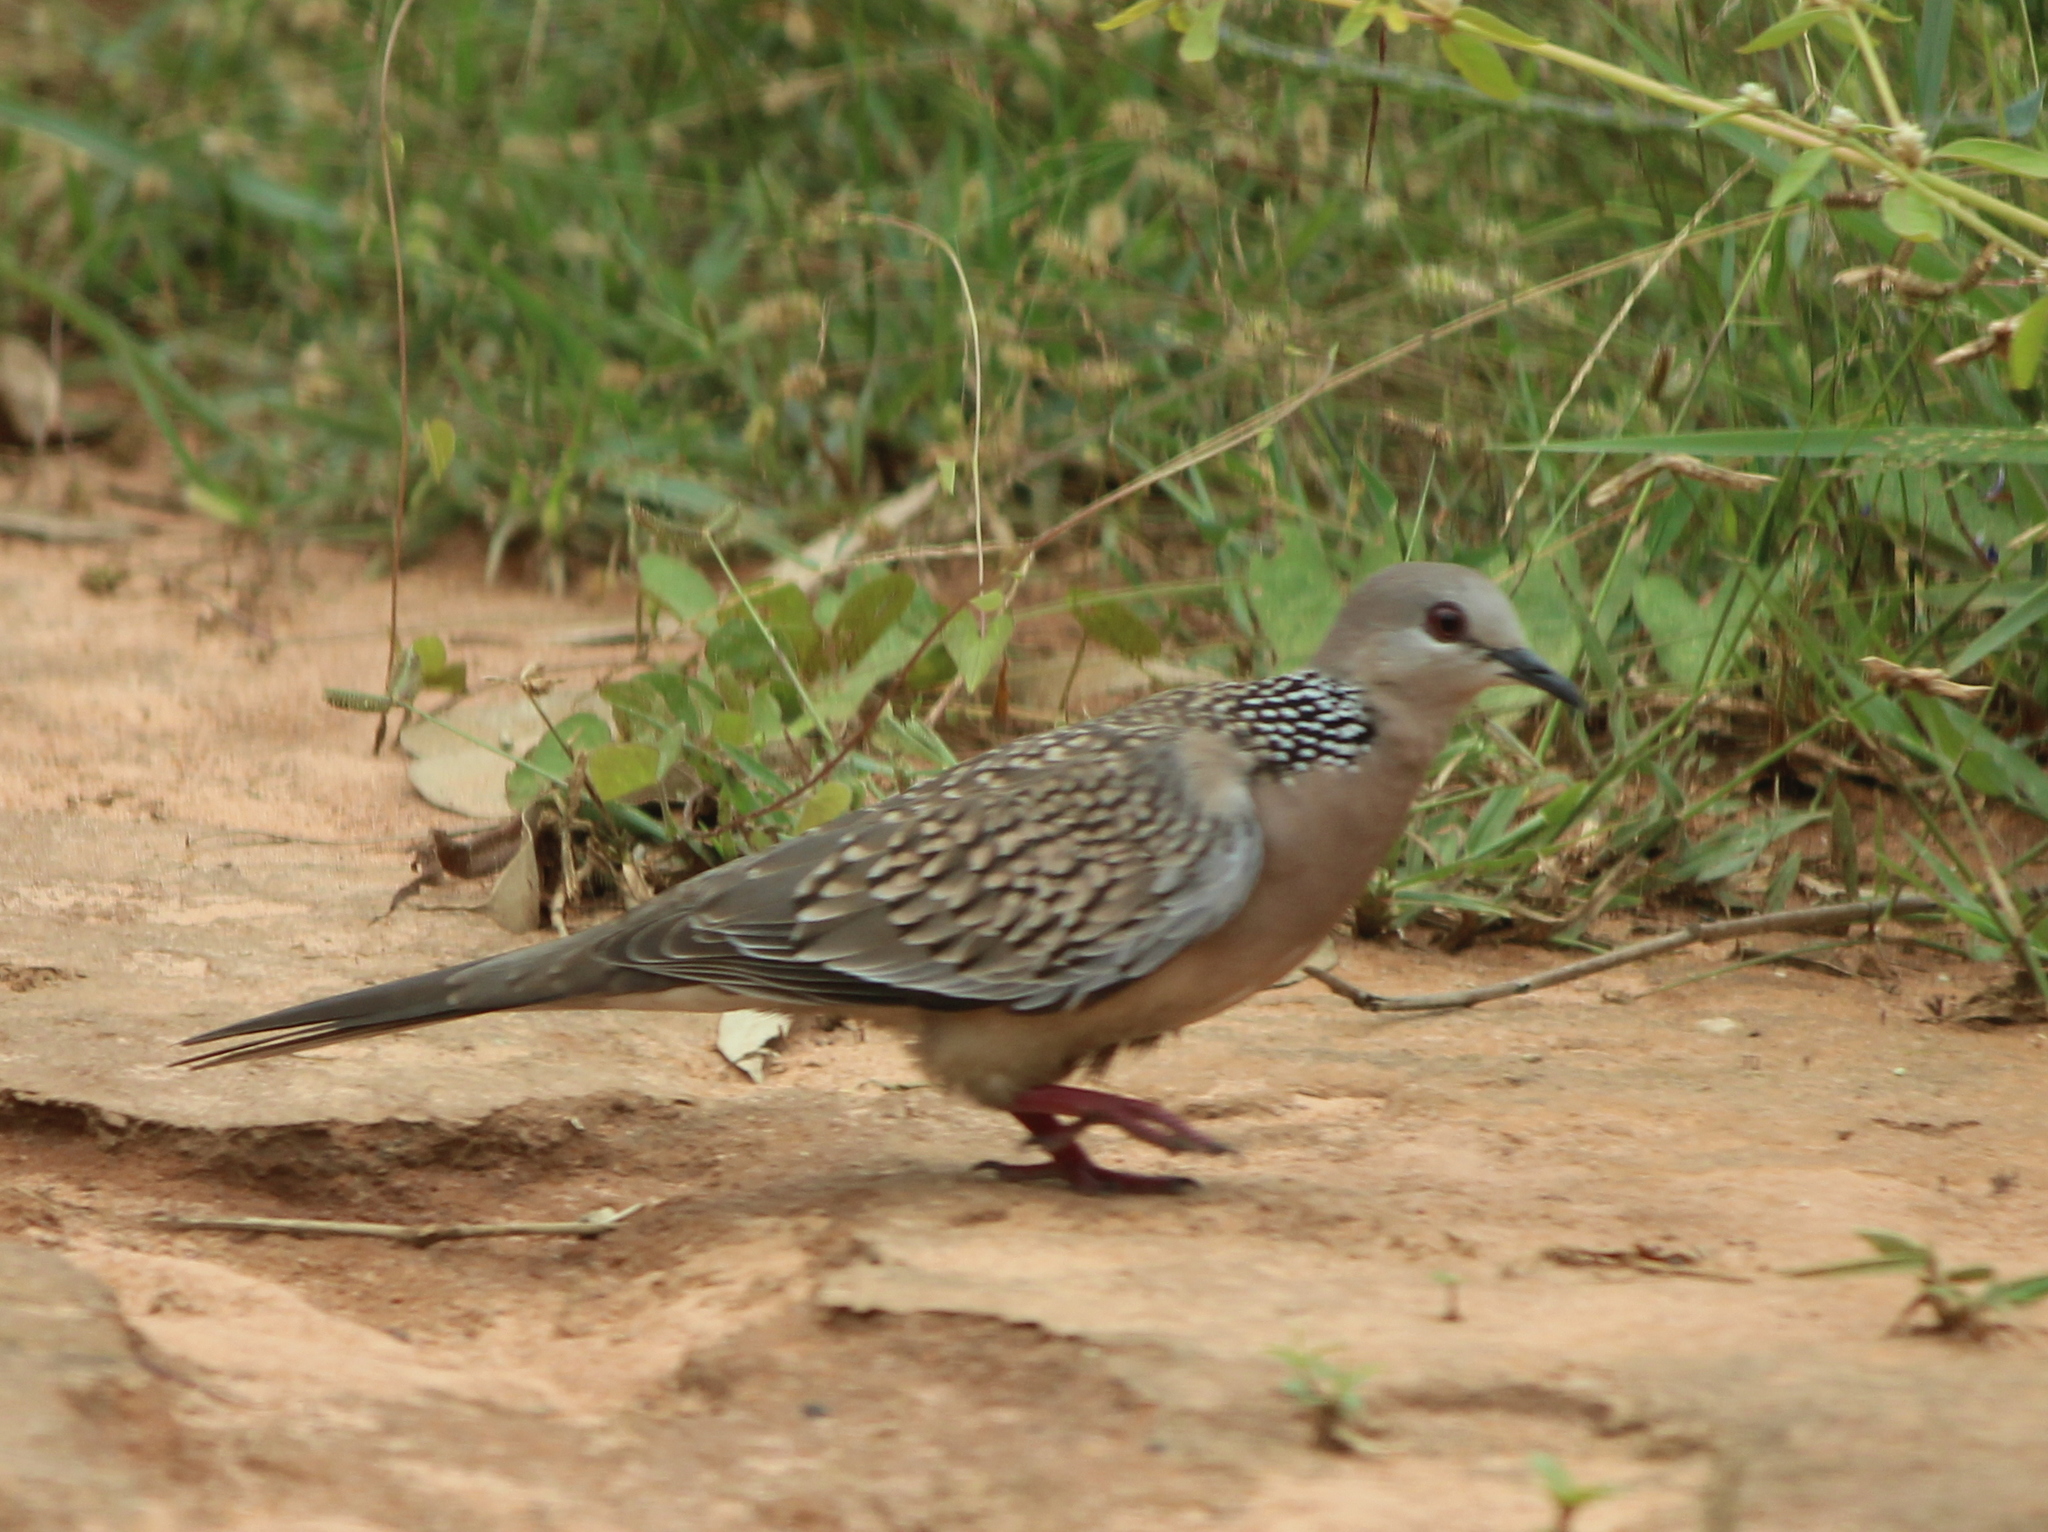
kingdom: Animalia
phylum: Chordata
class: Aves
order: Columbiformes
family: Columbidae
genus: Spilopelia
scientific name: Spilopelia chinensis
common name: Spotted dove
